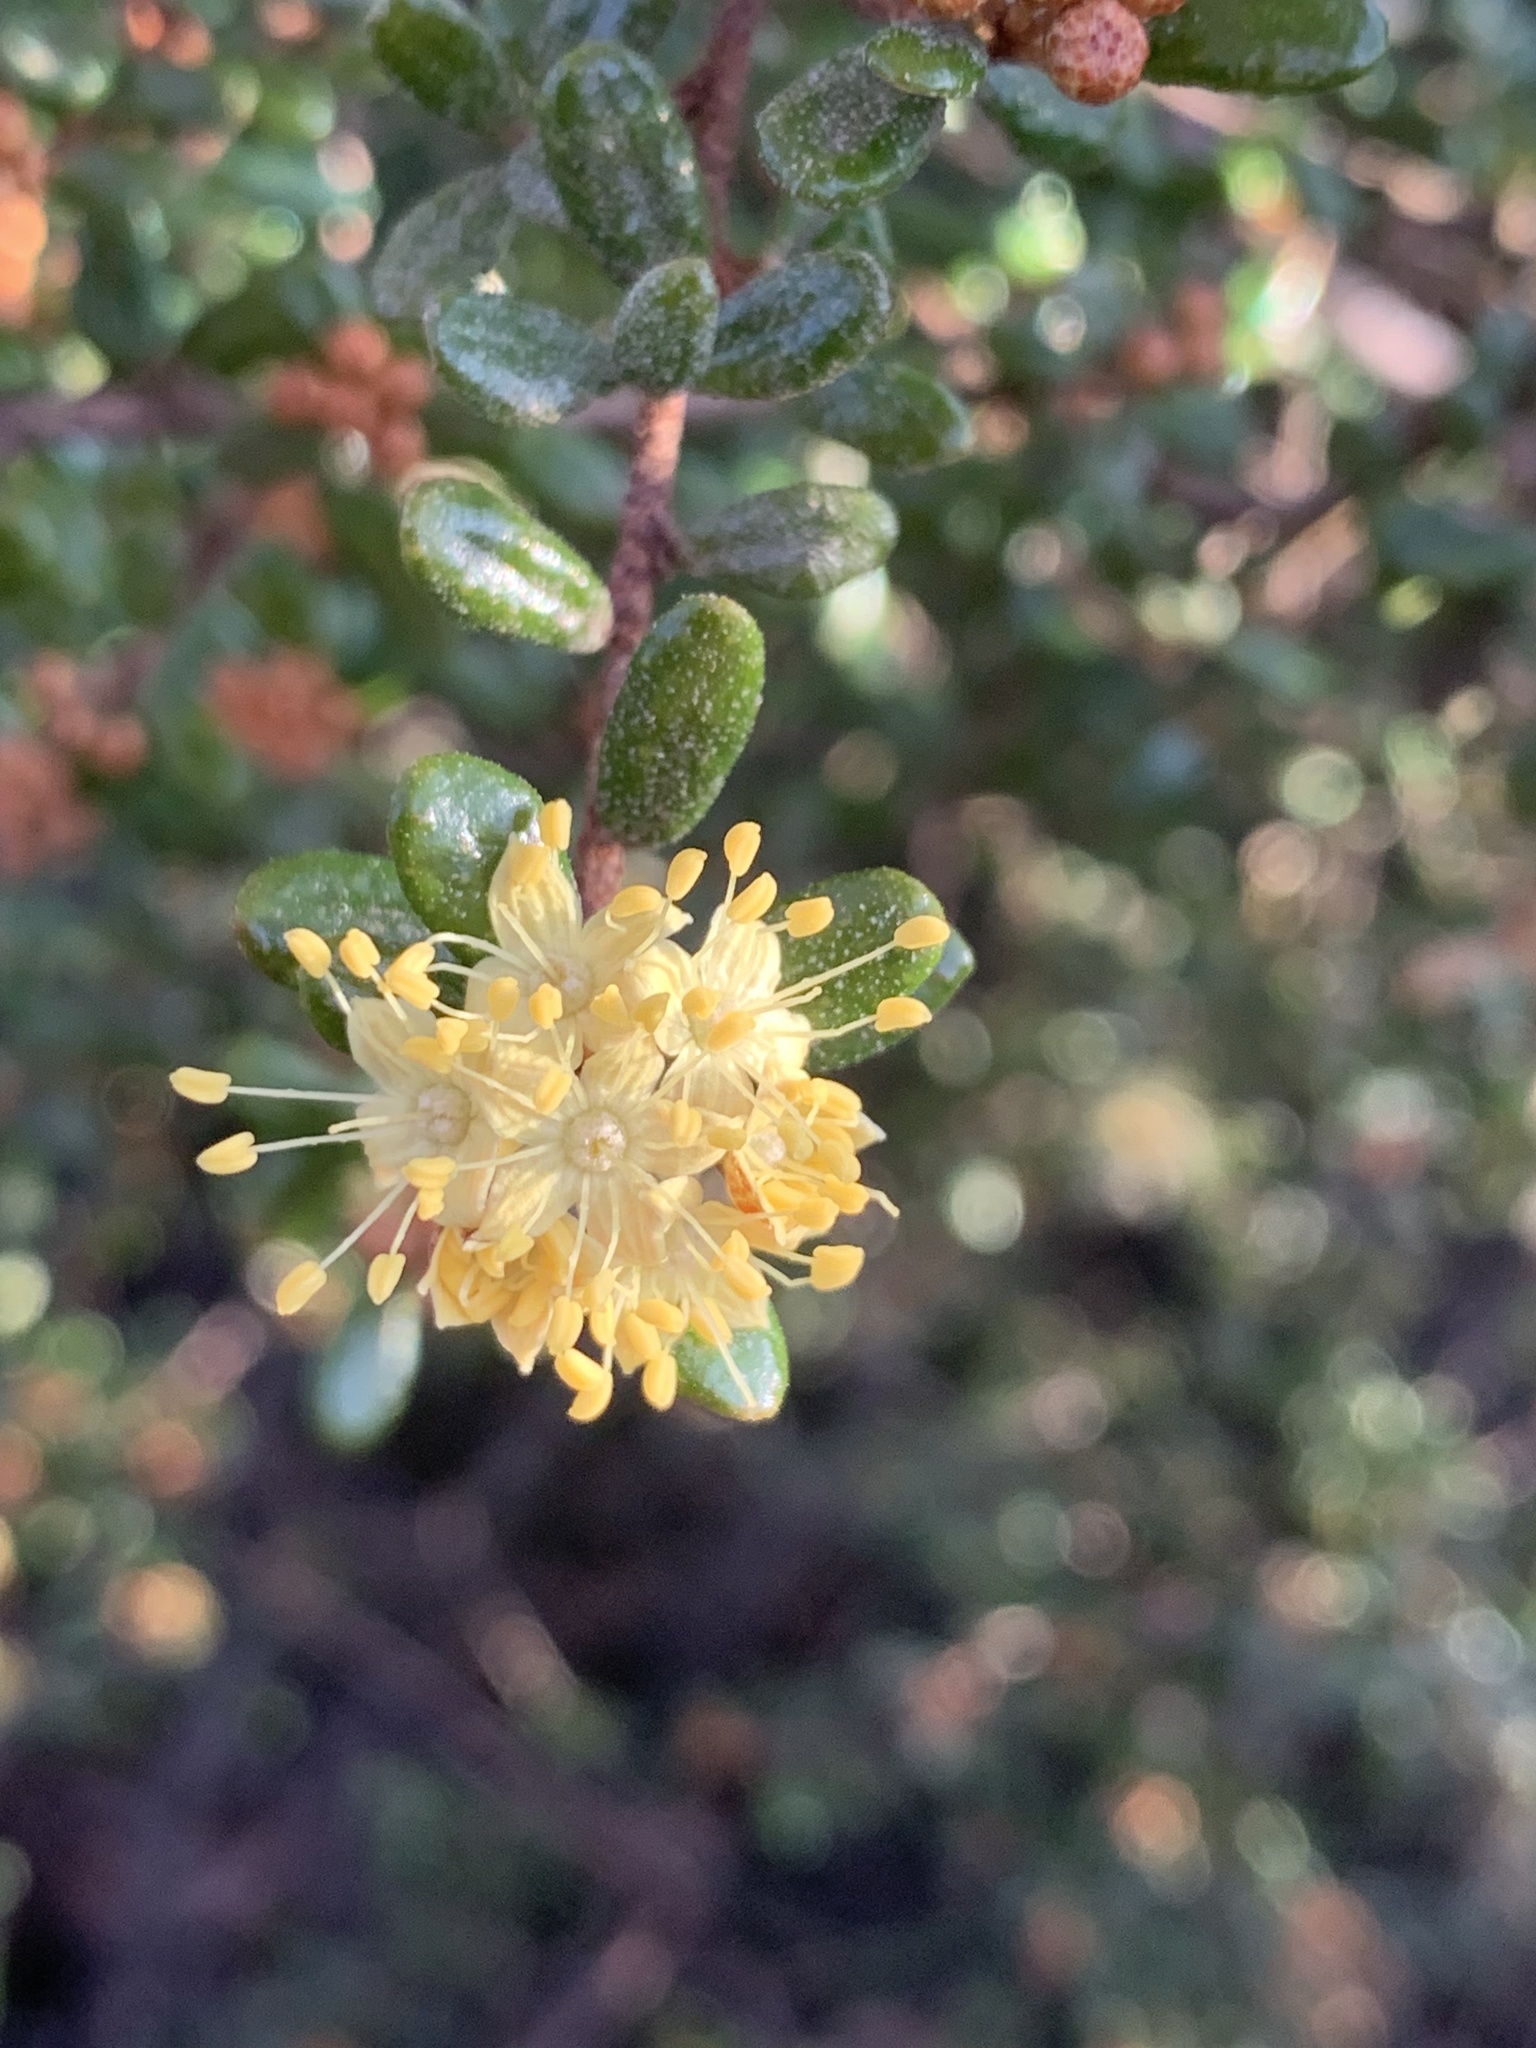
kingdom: Plantae
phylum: Tracheophyta
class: Magnoliopsida
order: Sapindales
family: Rutaceae
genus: Phebalium
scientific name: Phebalium squamulosum
